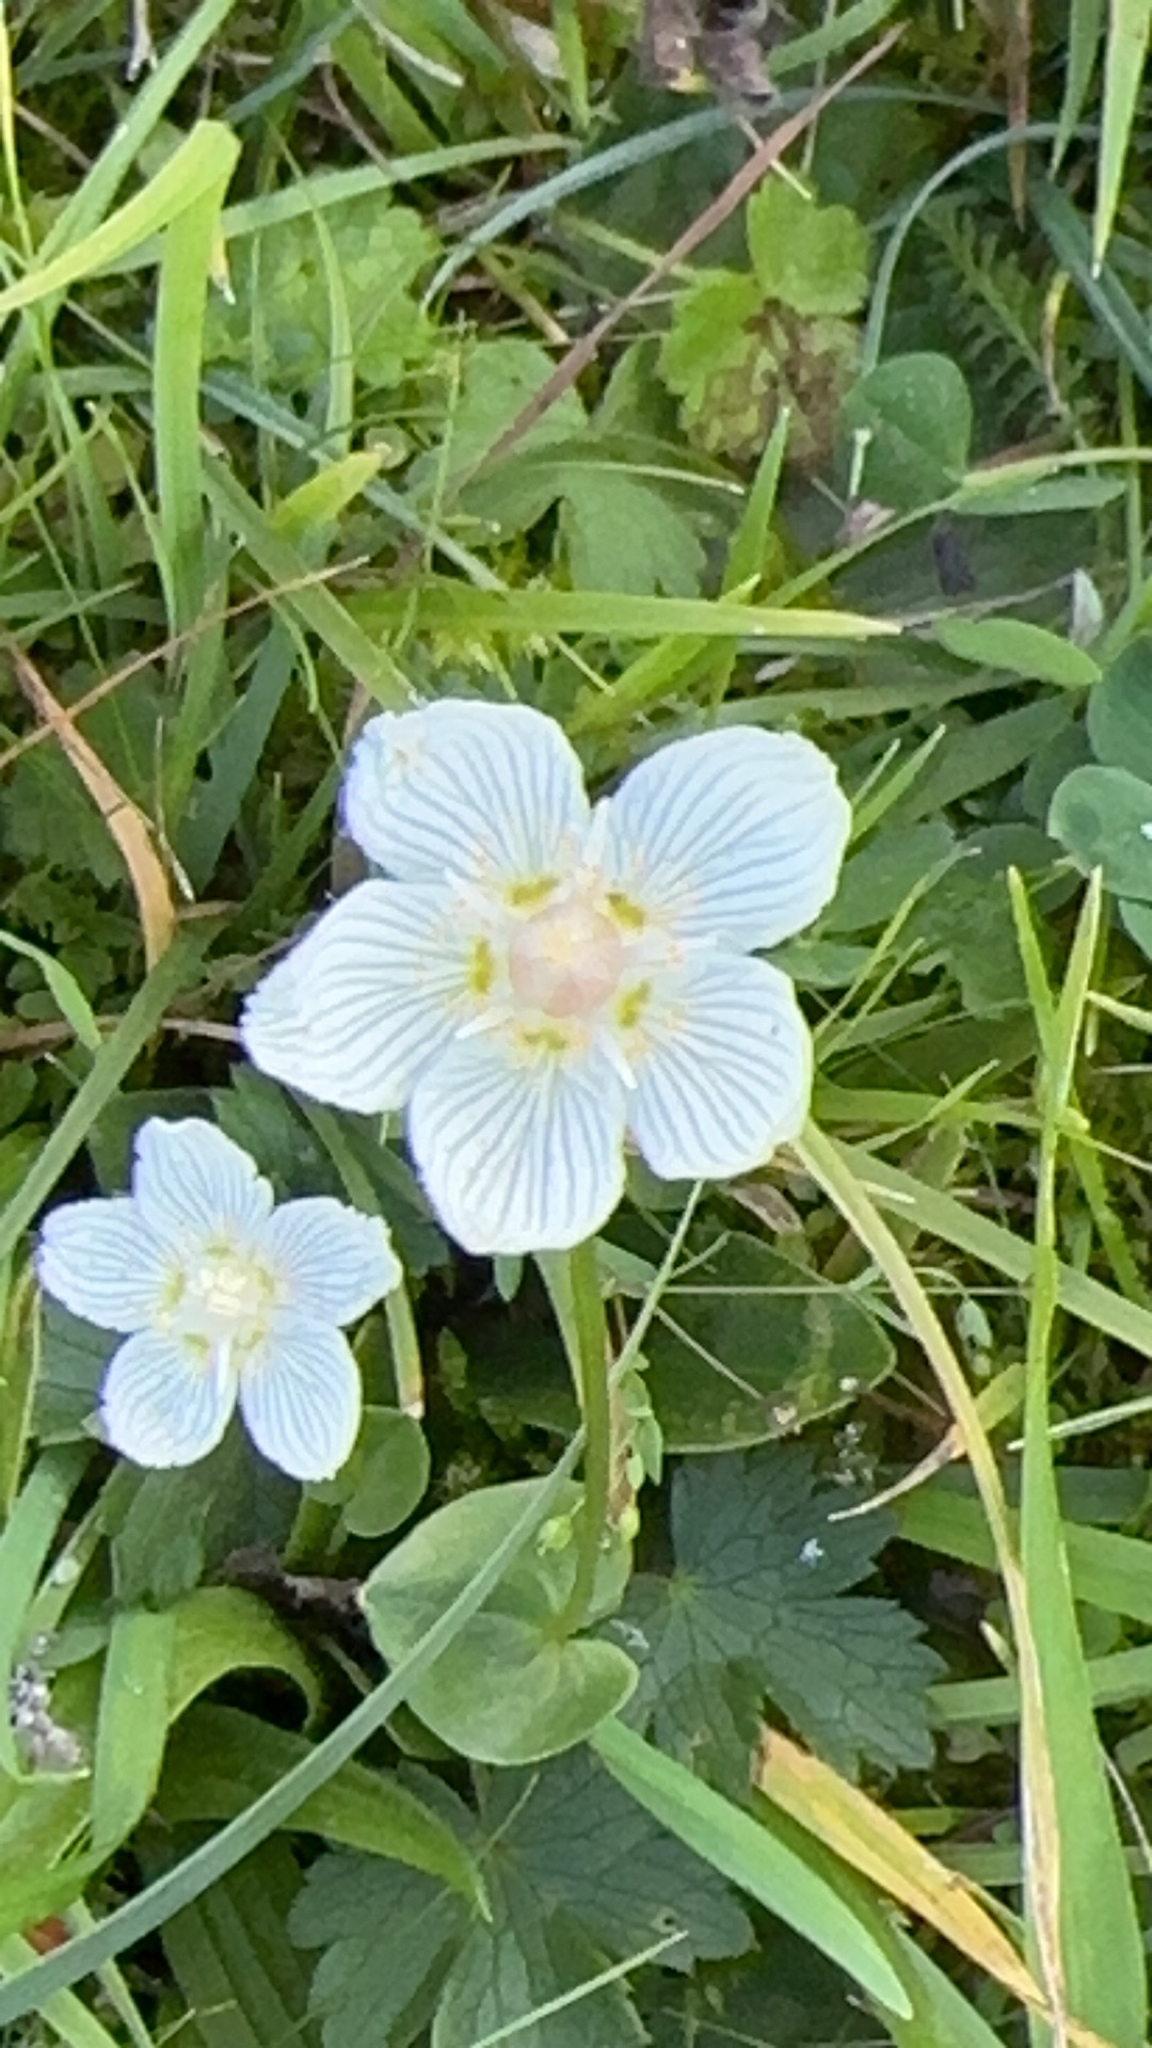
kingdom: Plantae
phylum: Tracheophyta
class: Magnoliopsida
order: Celastrales
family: Parnassiaceae
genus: Parnassia
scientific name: Parnassia palustris
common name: Grass-of-parnassus
